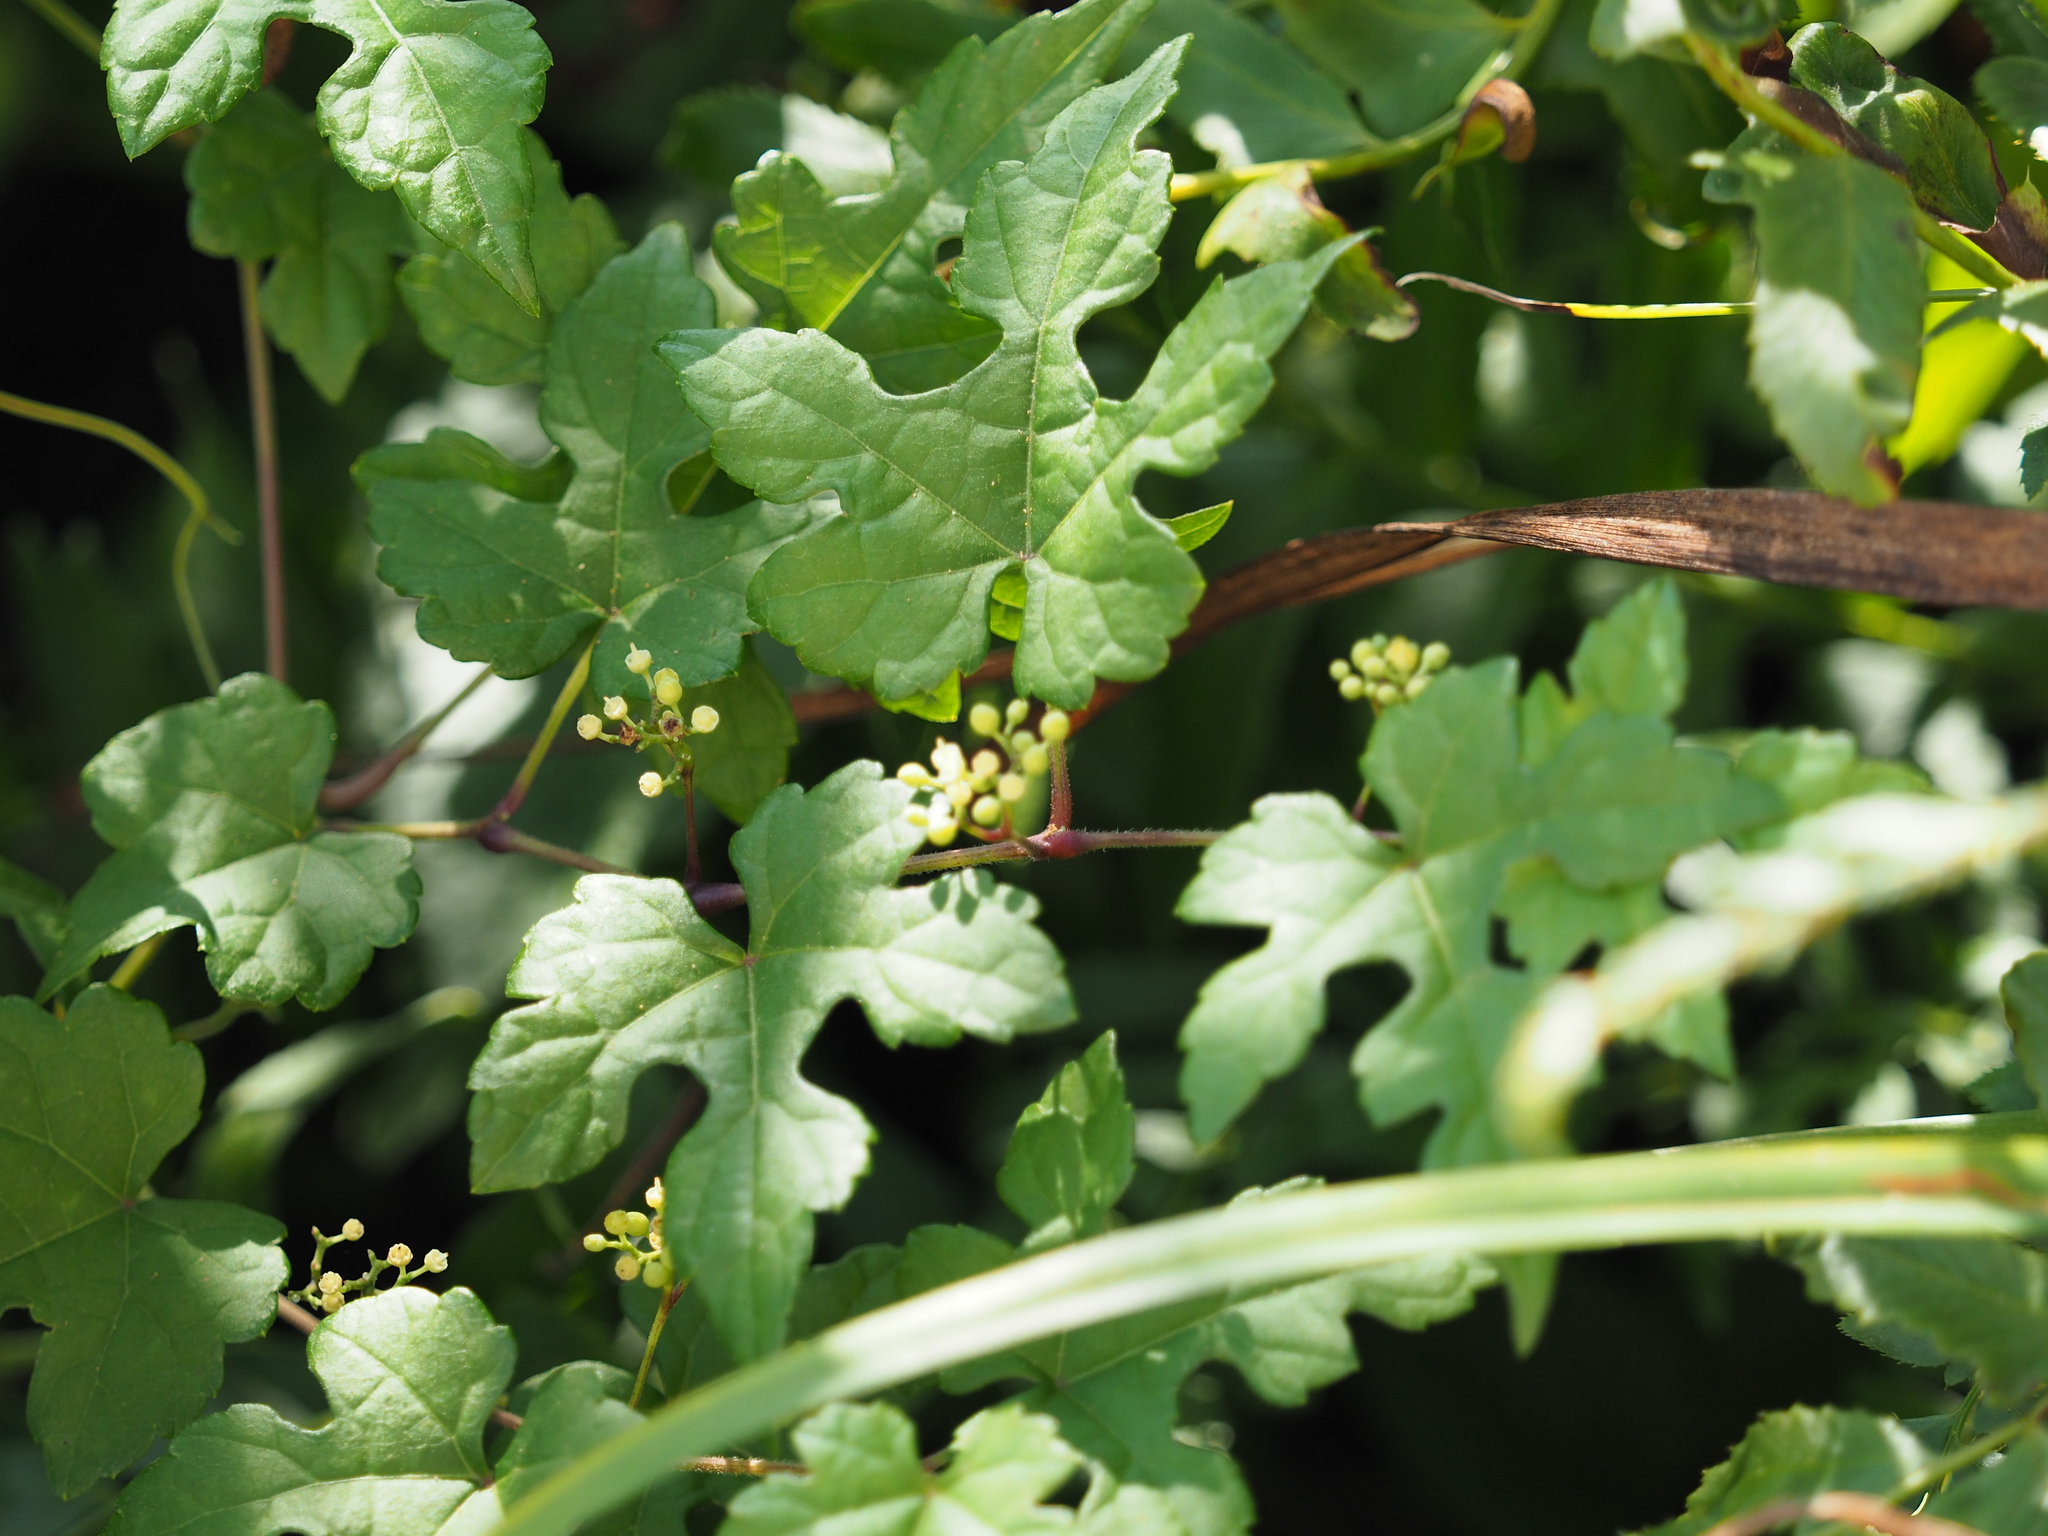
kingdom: Plantae
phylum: Tracheophyta
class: Magnoliopsida
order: Vitales
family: Vitaceae
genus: Ampelopsis
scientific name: Ampelopsis glandulosa
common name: Amur peppervine
